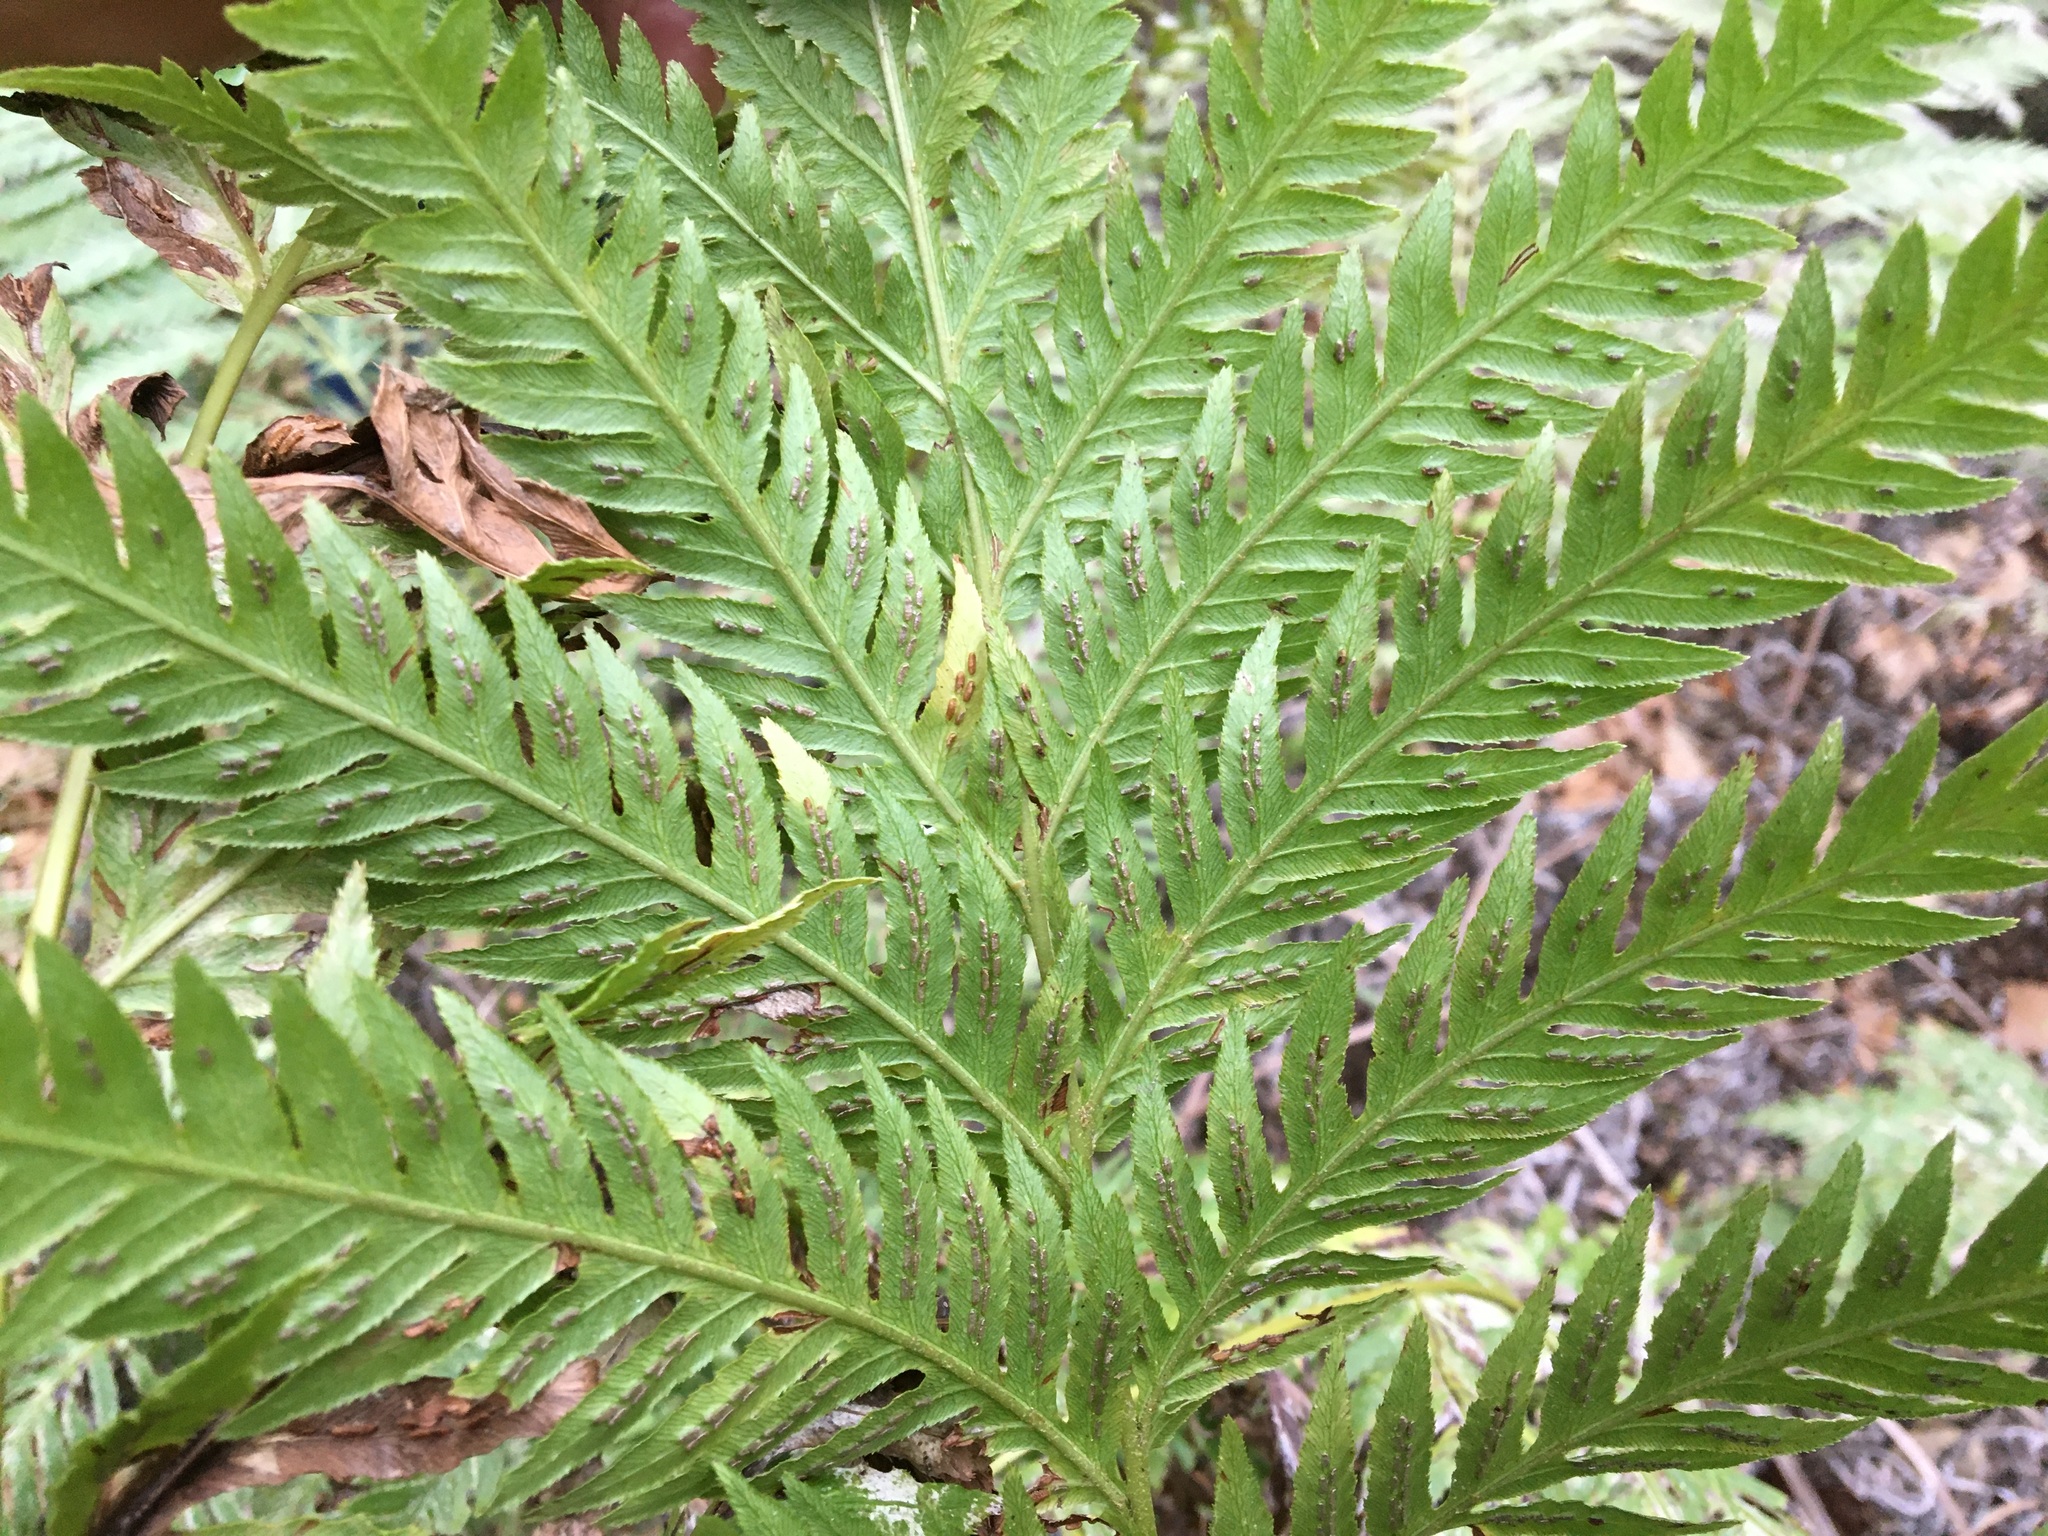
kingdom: Plantae
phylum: Tracheophyta
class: Polypodiopsida
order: Polypodiales
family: Blechnaceae
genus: Woodwardia
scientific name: Woodwardia fimbriata
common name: Giant chain fern
